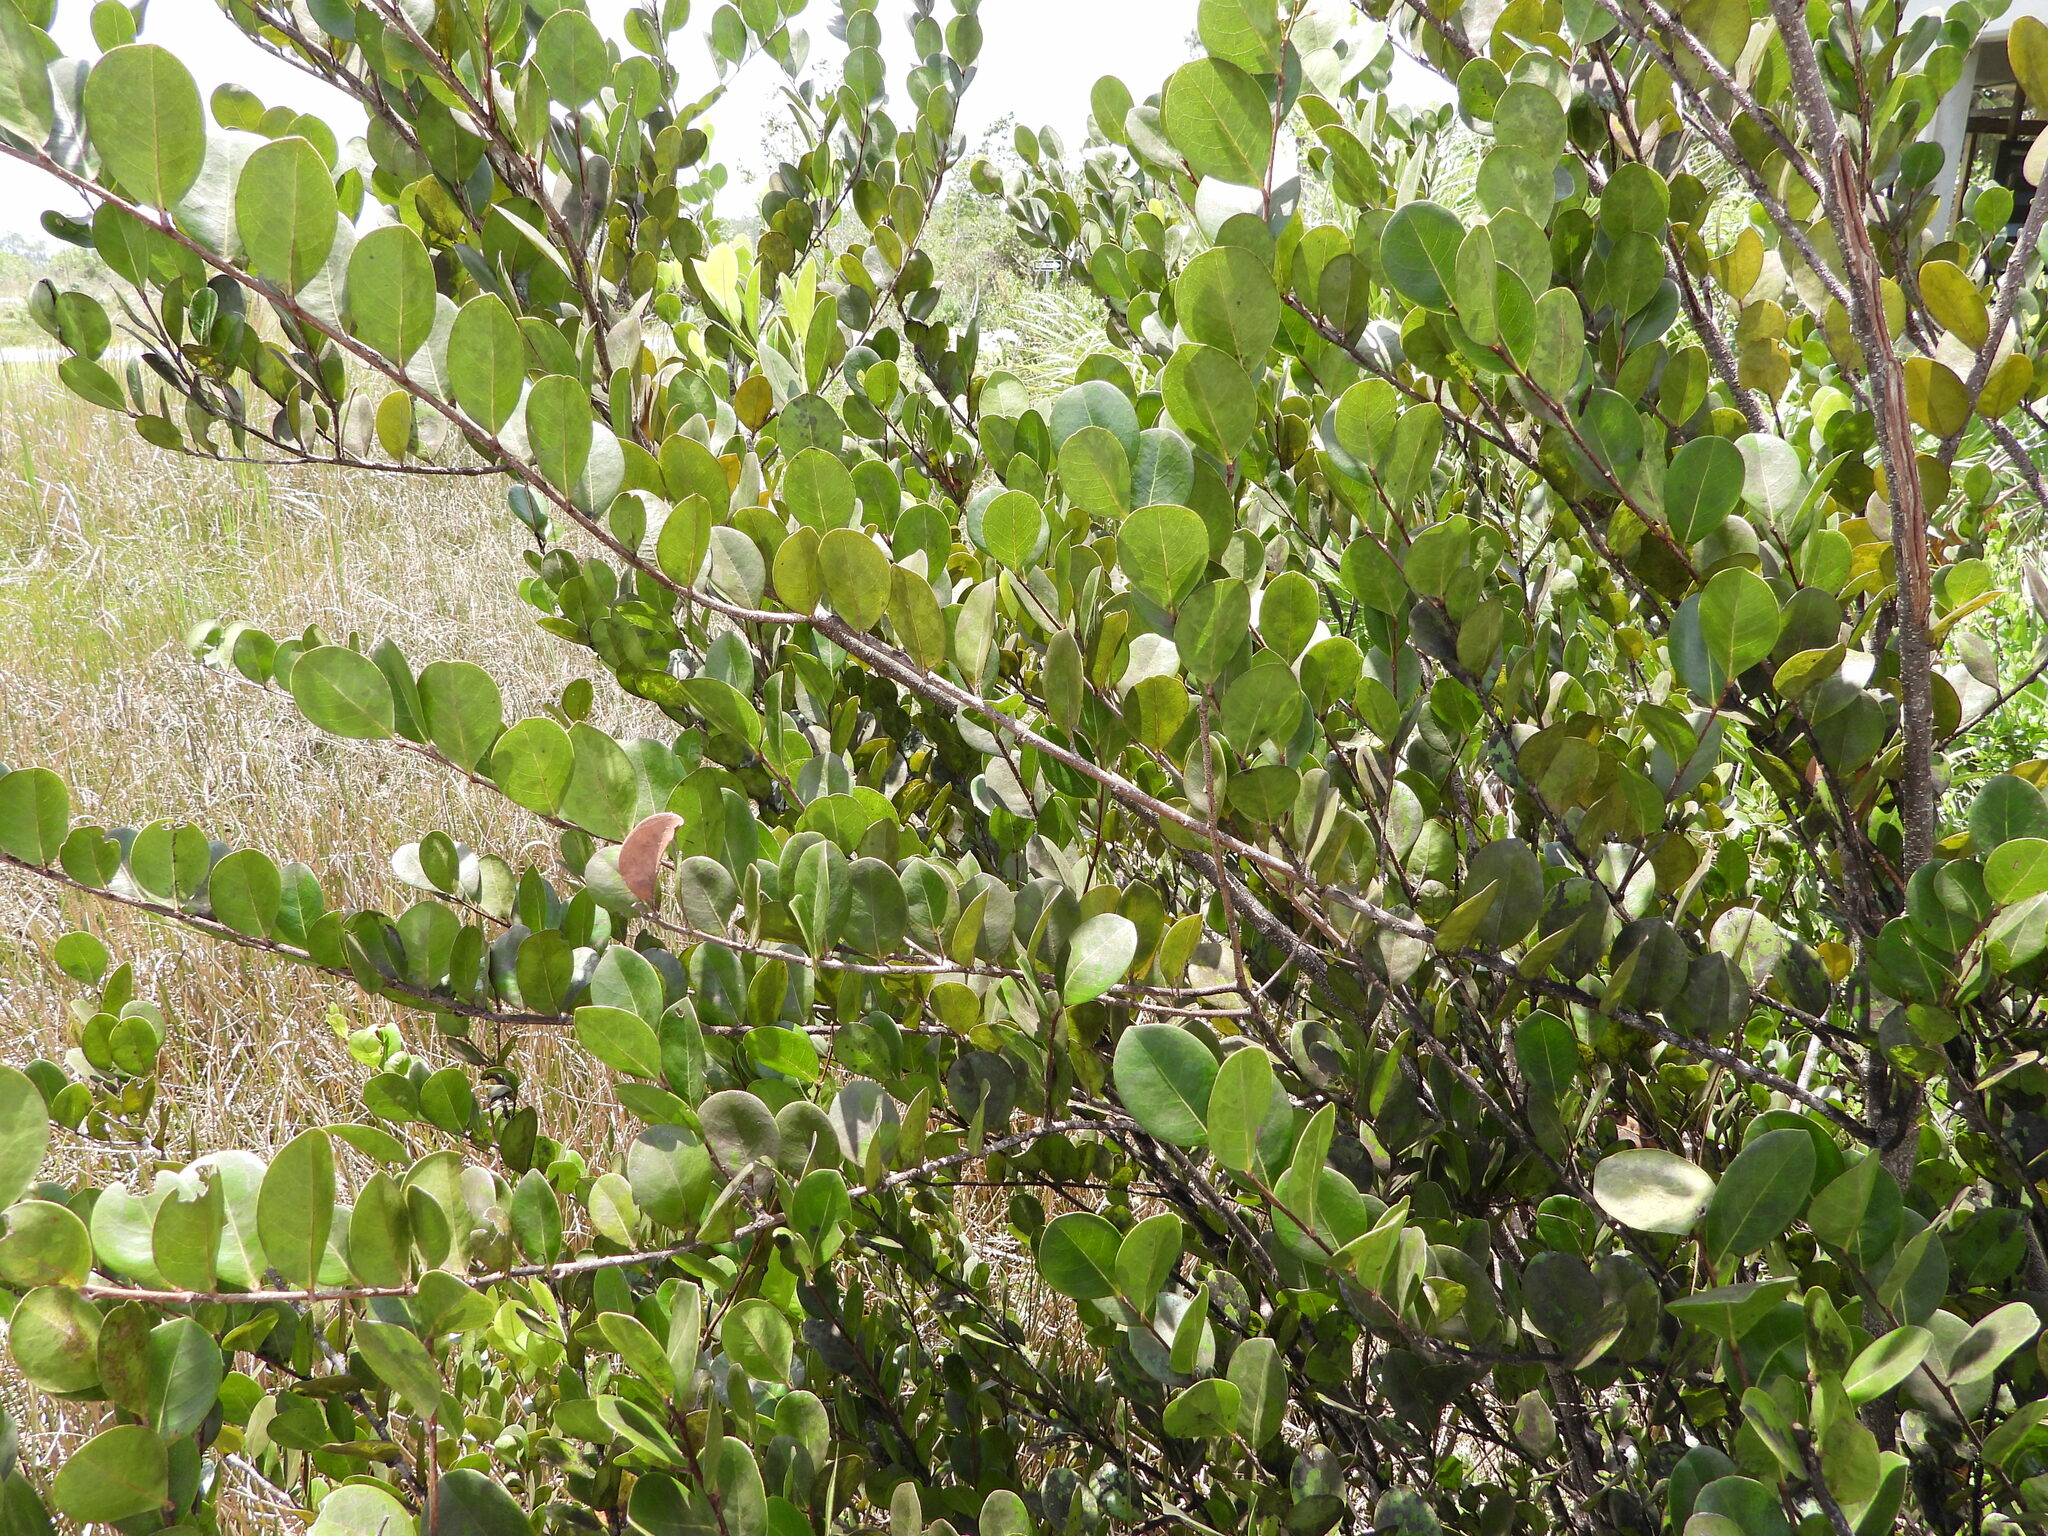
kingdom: Plantae
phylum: Tracheophyta
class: Magnoliopsida
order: Malpighiales
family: Chrysobalanaceae
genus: Chrysobalanus
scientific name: Chrysobalanus icaco
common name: Coco plum
